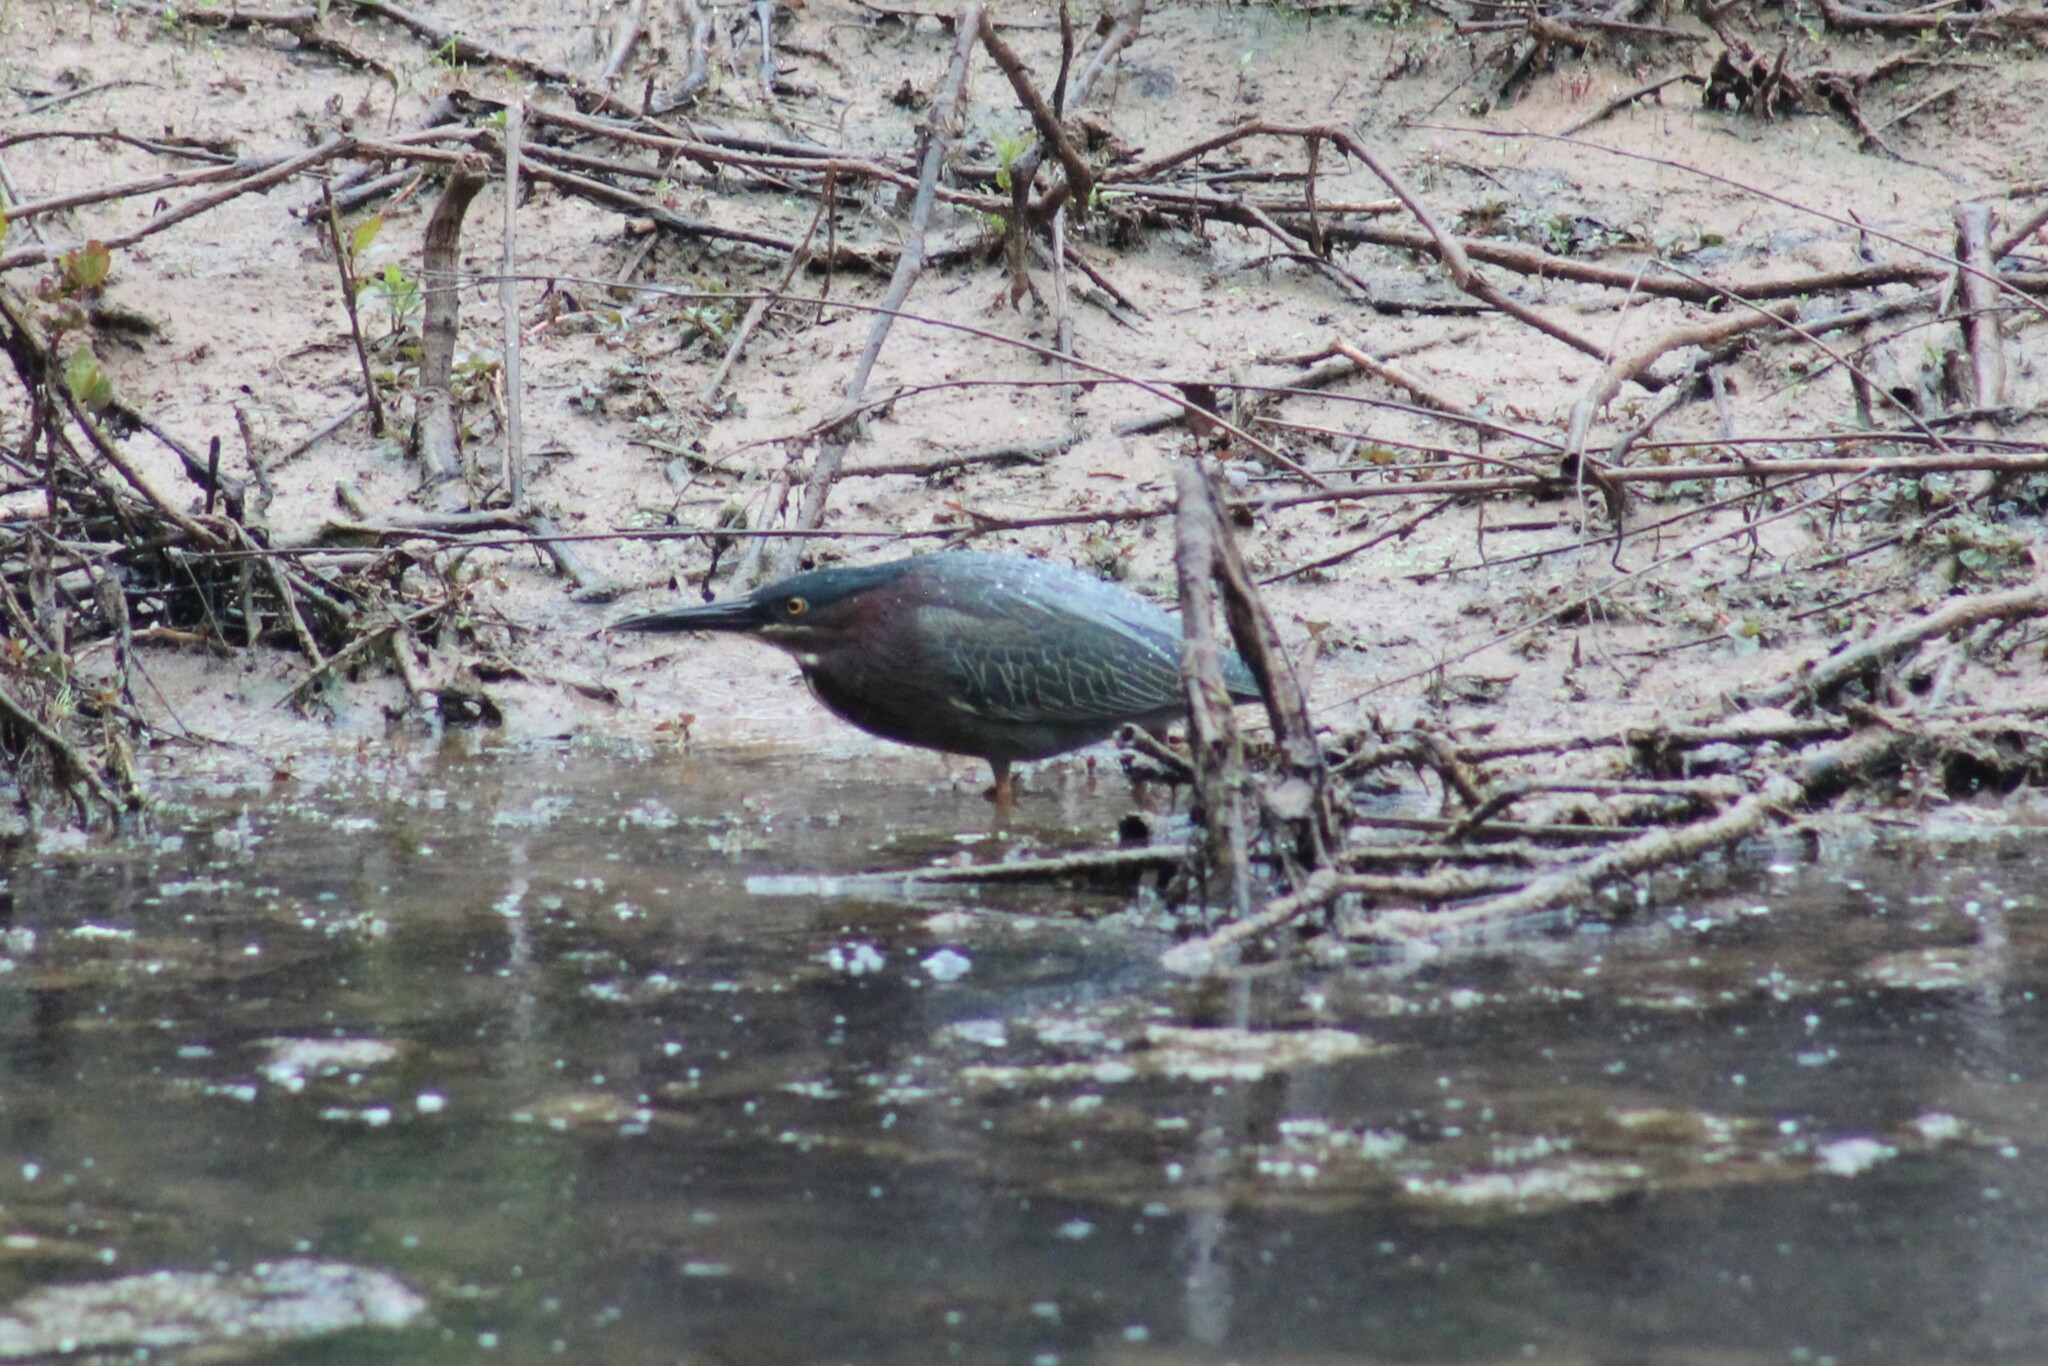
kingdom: Animalia
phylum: Chordata
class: Aves
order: Pelecaniformes
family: Ardeidae
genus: Butorides
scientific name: Butorides virescens
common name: Green heron
